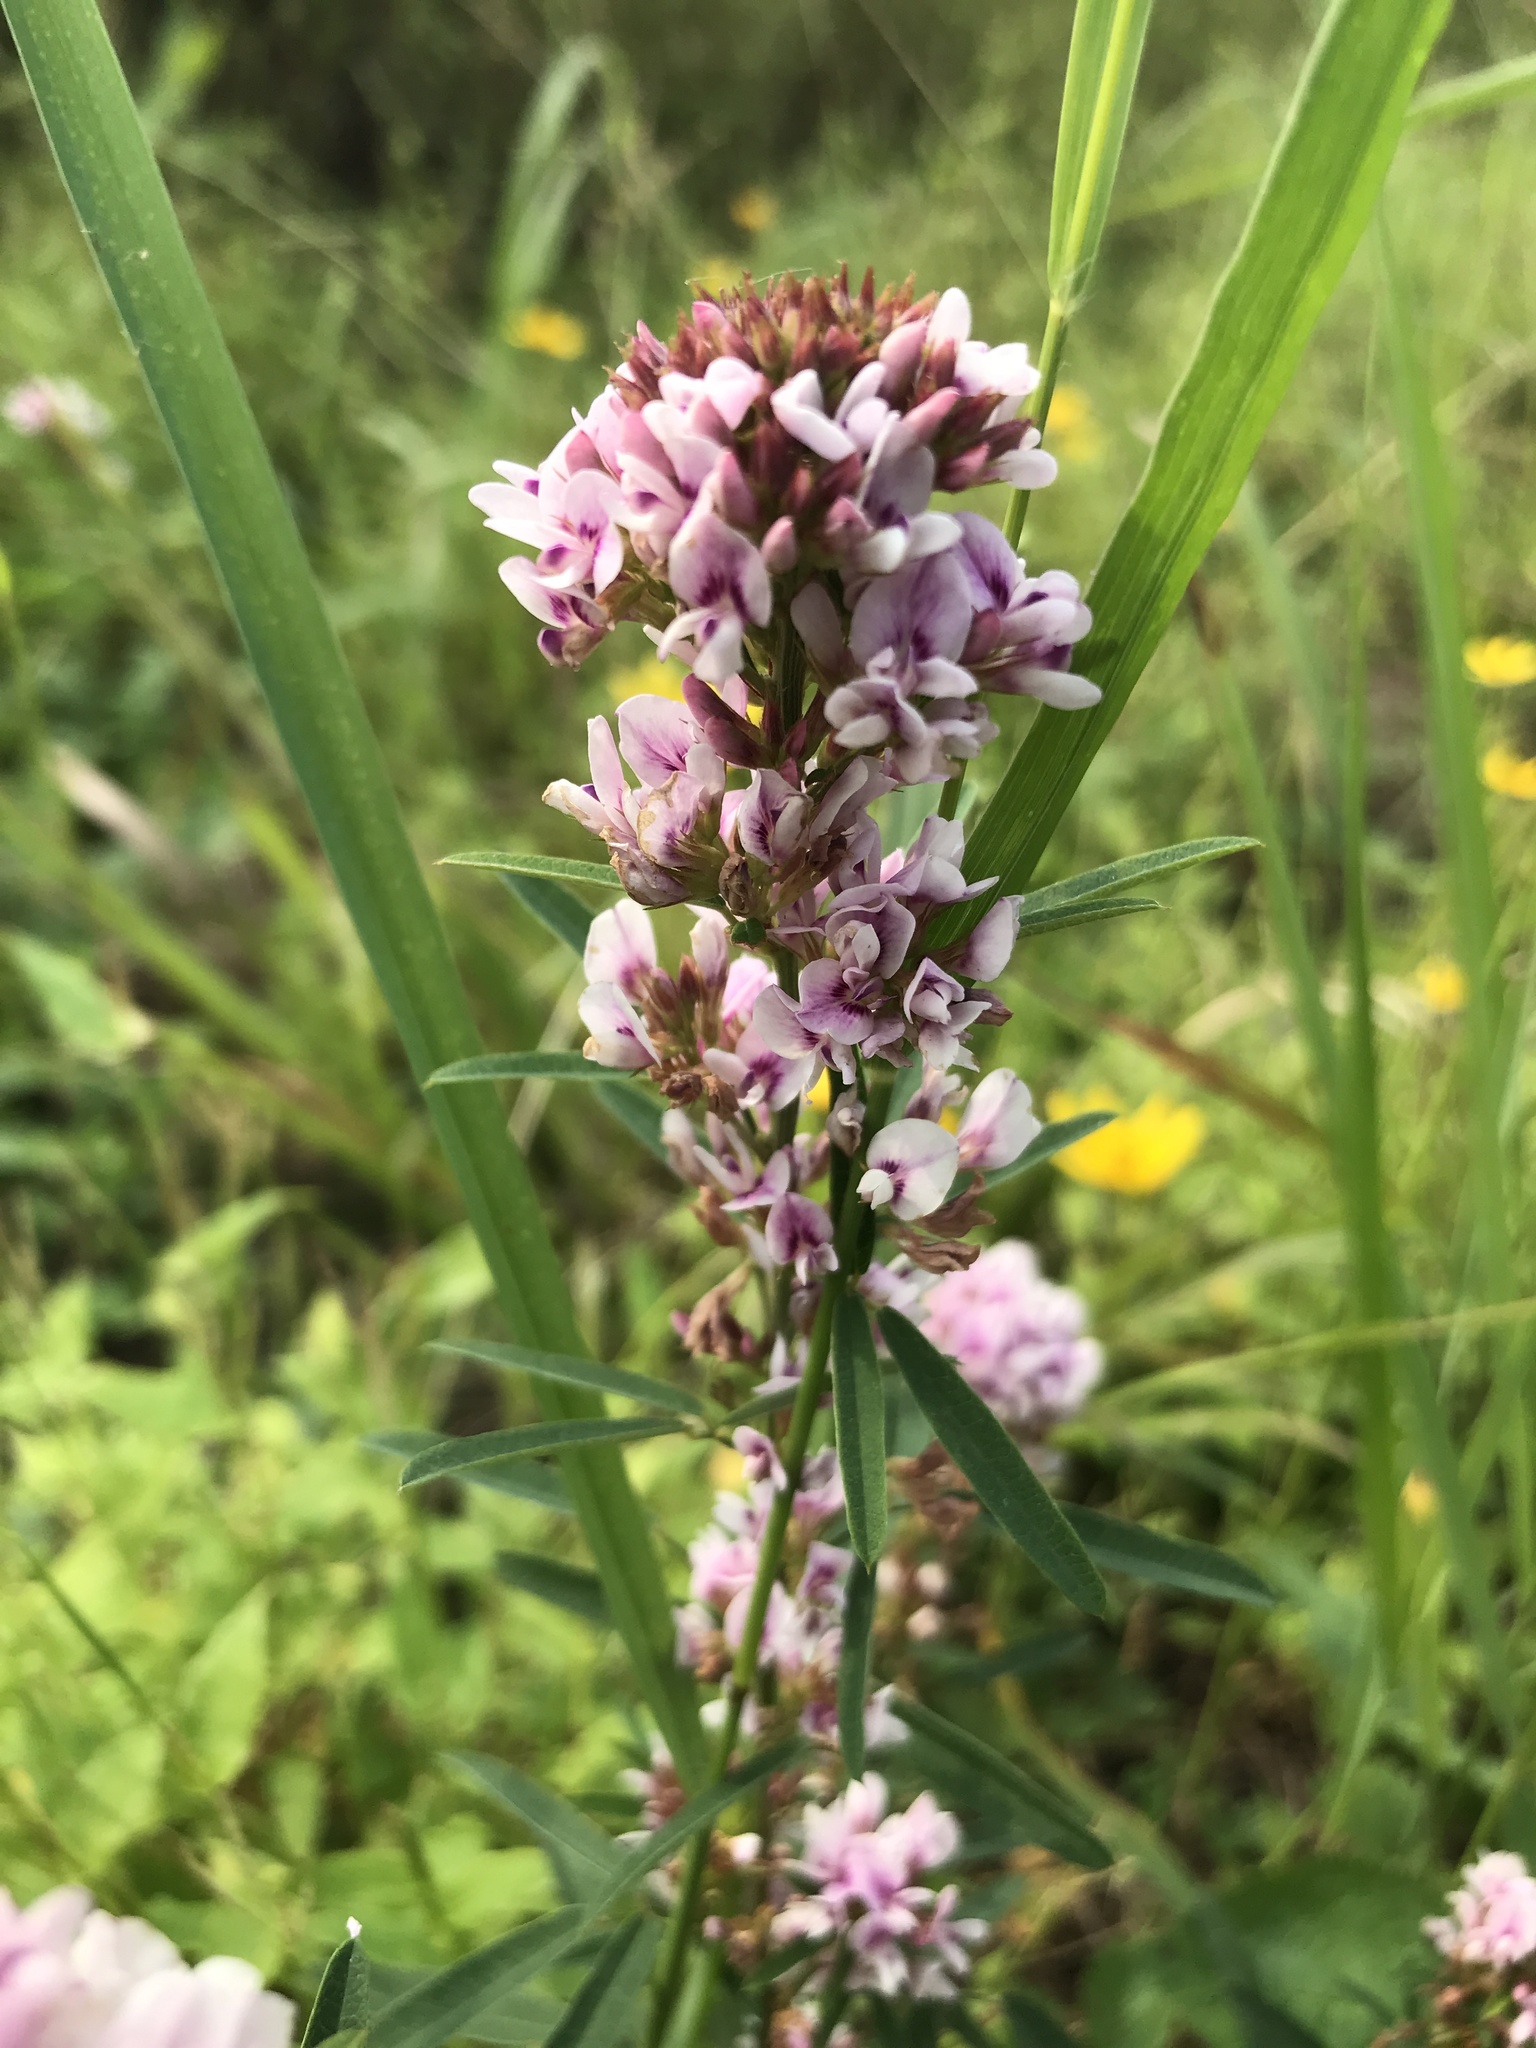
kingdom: Plantae
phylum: Tracheophyta
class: Magnoliopsida
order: Fabales
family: Fabaceae
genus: Lespedeza
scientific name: Lespedeza virginica
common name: Slender bush-clover
